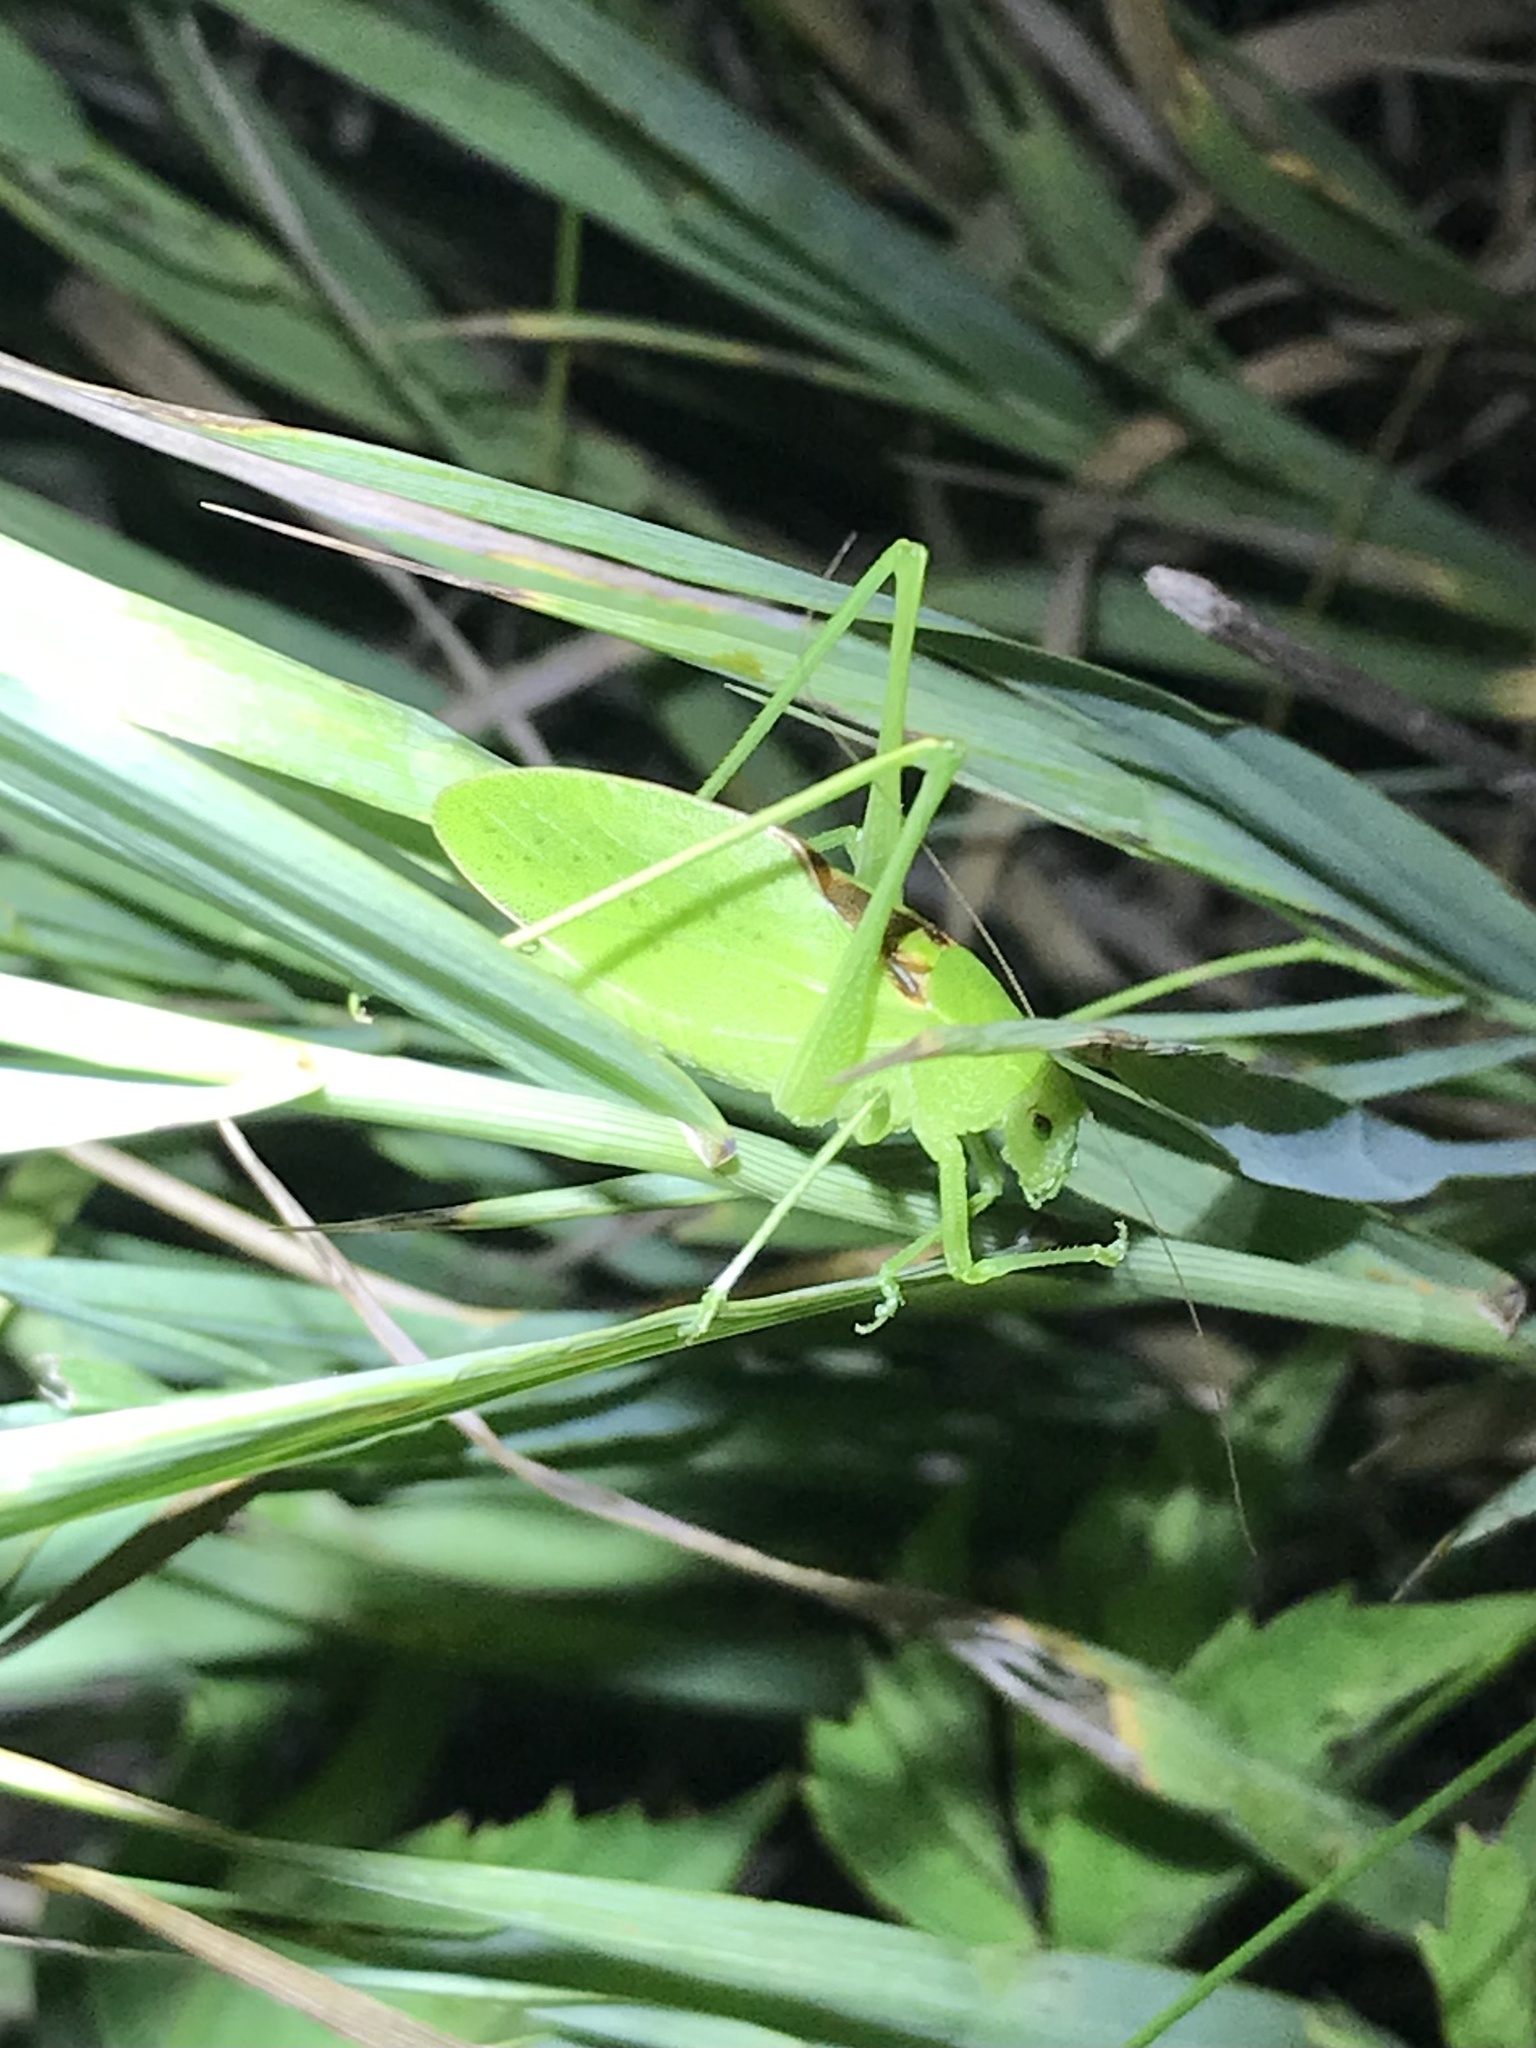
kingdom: Animalia
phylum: Arthropoda
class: Insecta
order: Orthoptera
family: Tettigoniidae
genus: Amblycorypha
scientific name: Amblycorypha parvipennis
